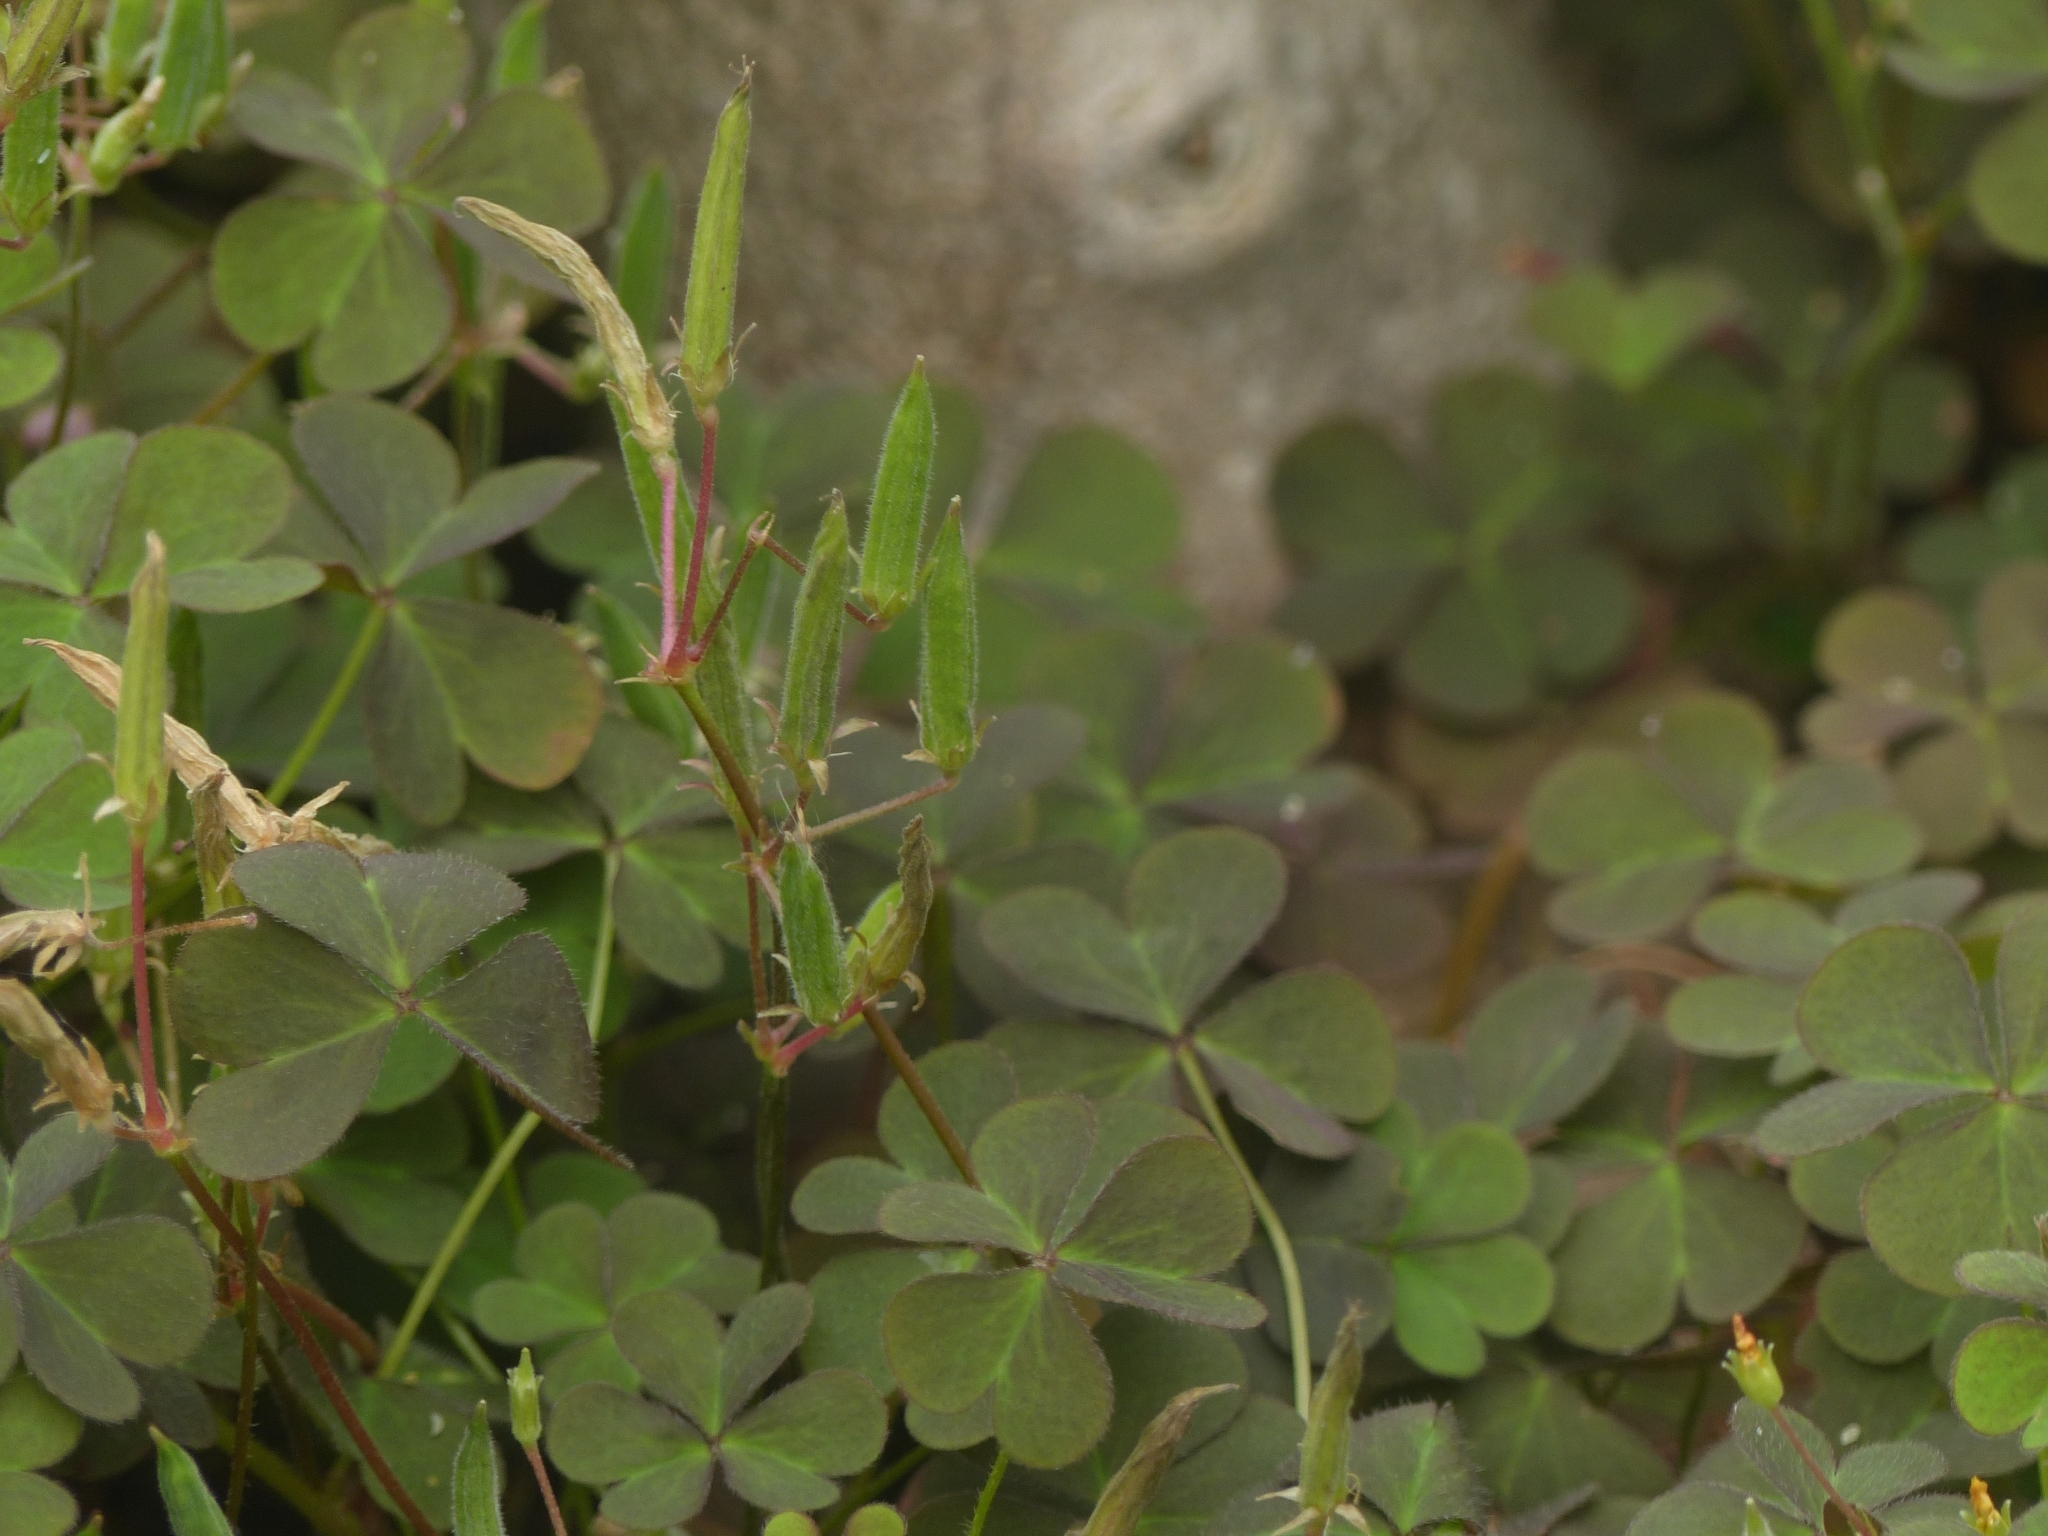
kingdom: Plantae
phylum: Tracheophyta
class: Magnoliopsida
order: Oxalidales
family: Oxalidaceae
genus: Oxalis
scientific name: Oxalis corniculata
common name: Procumbent yellow-sorrel
